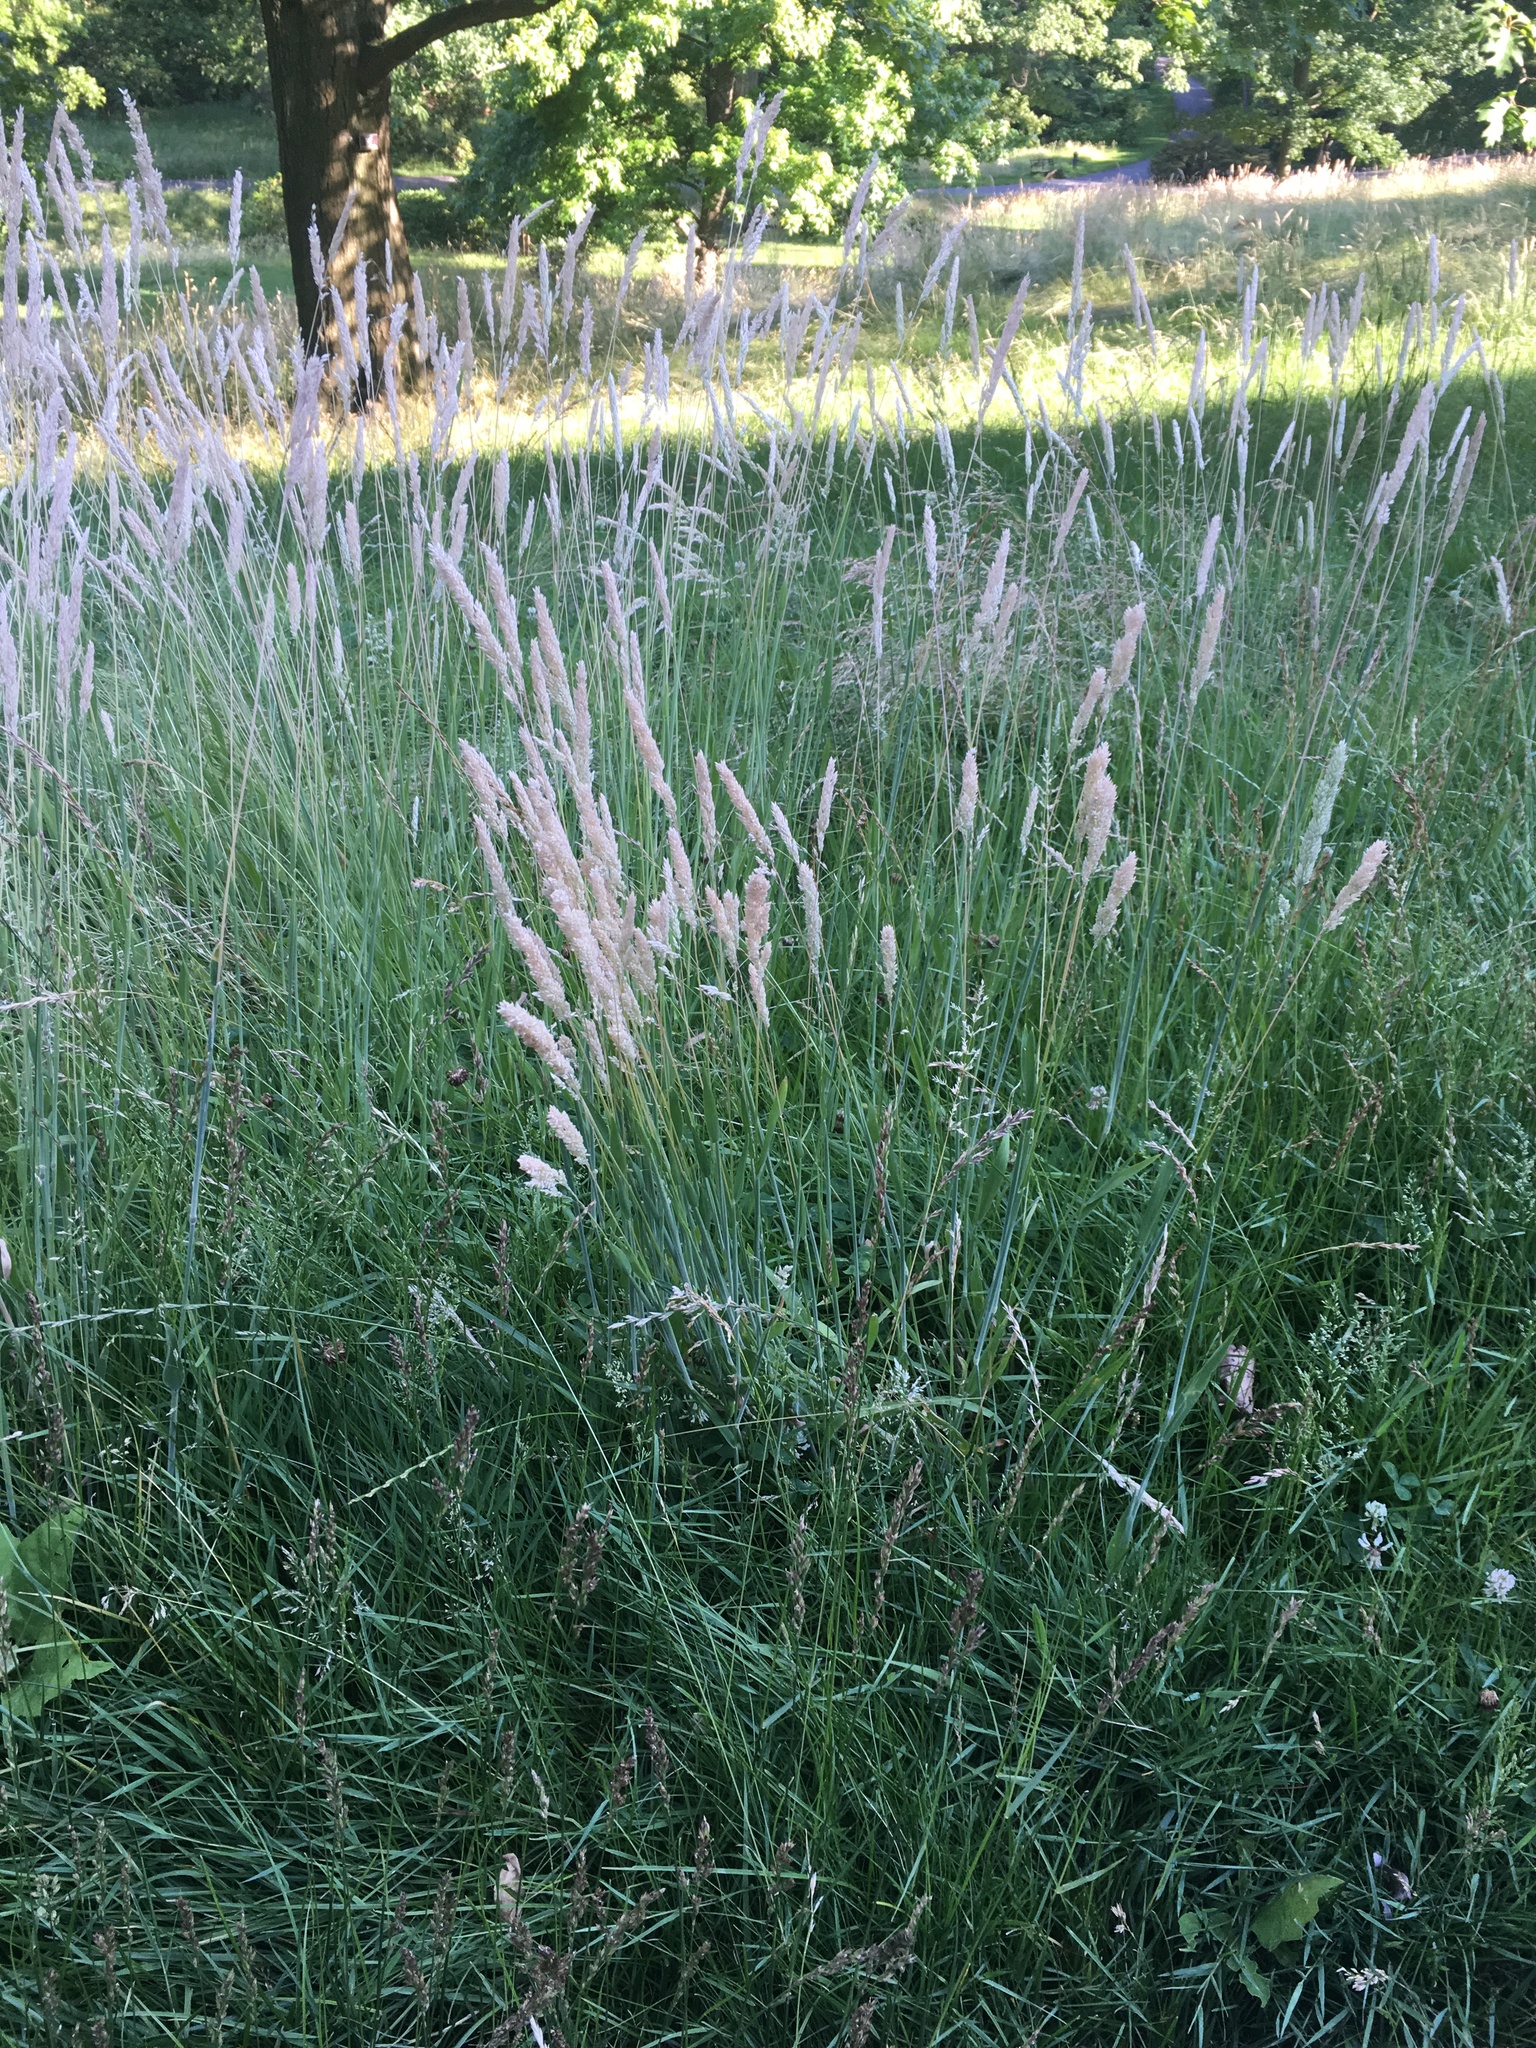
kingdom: Plantae
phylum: Tracheophyta
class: Liliopsida
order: Poales
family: Poaceae
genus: Holcus
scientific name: Holcus lanatus
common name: Yorkshire-fog
